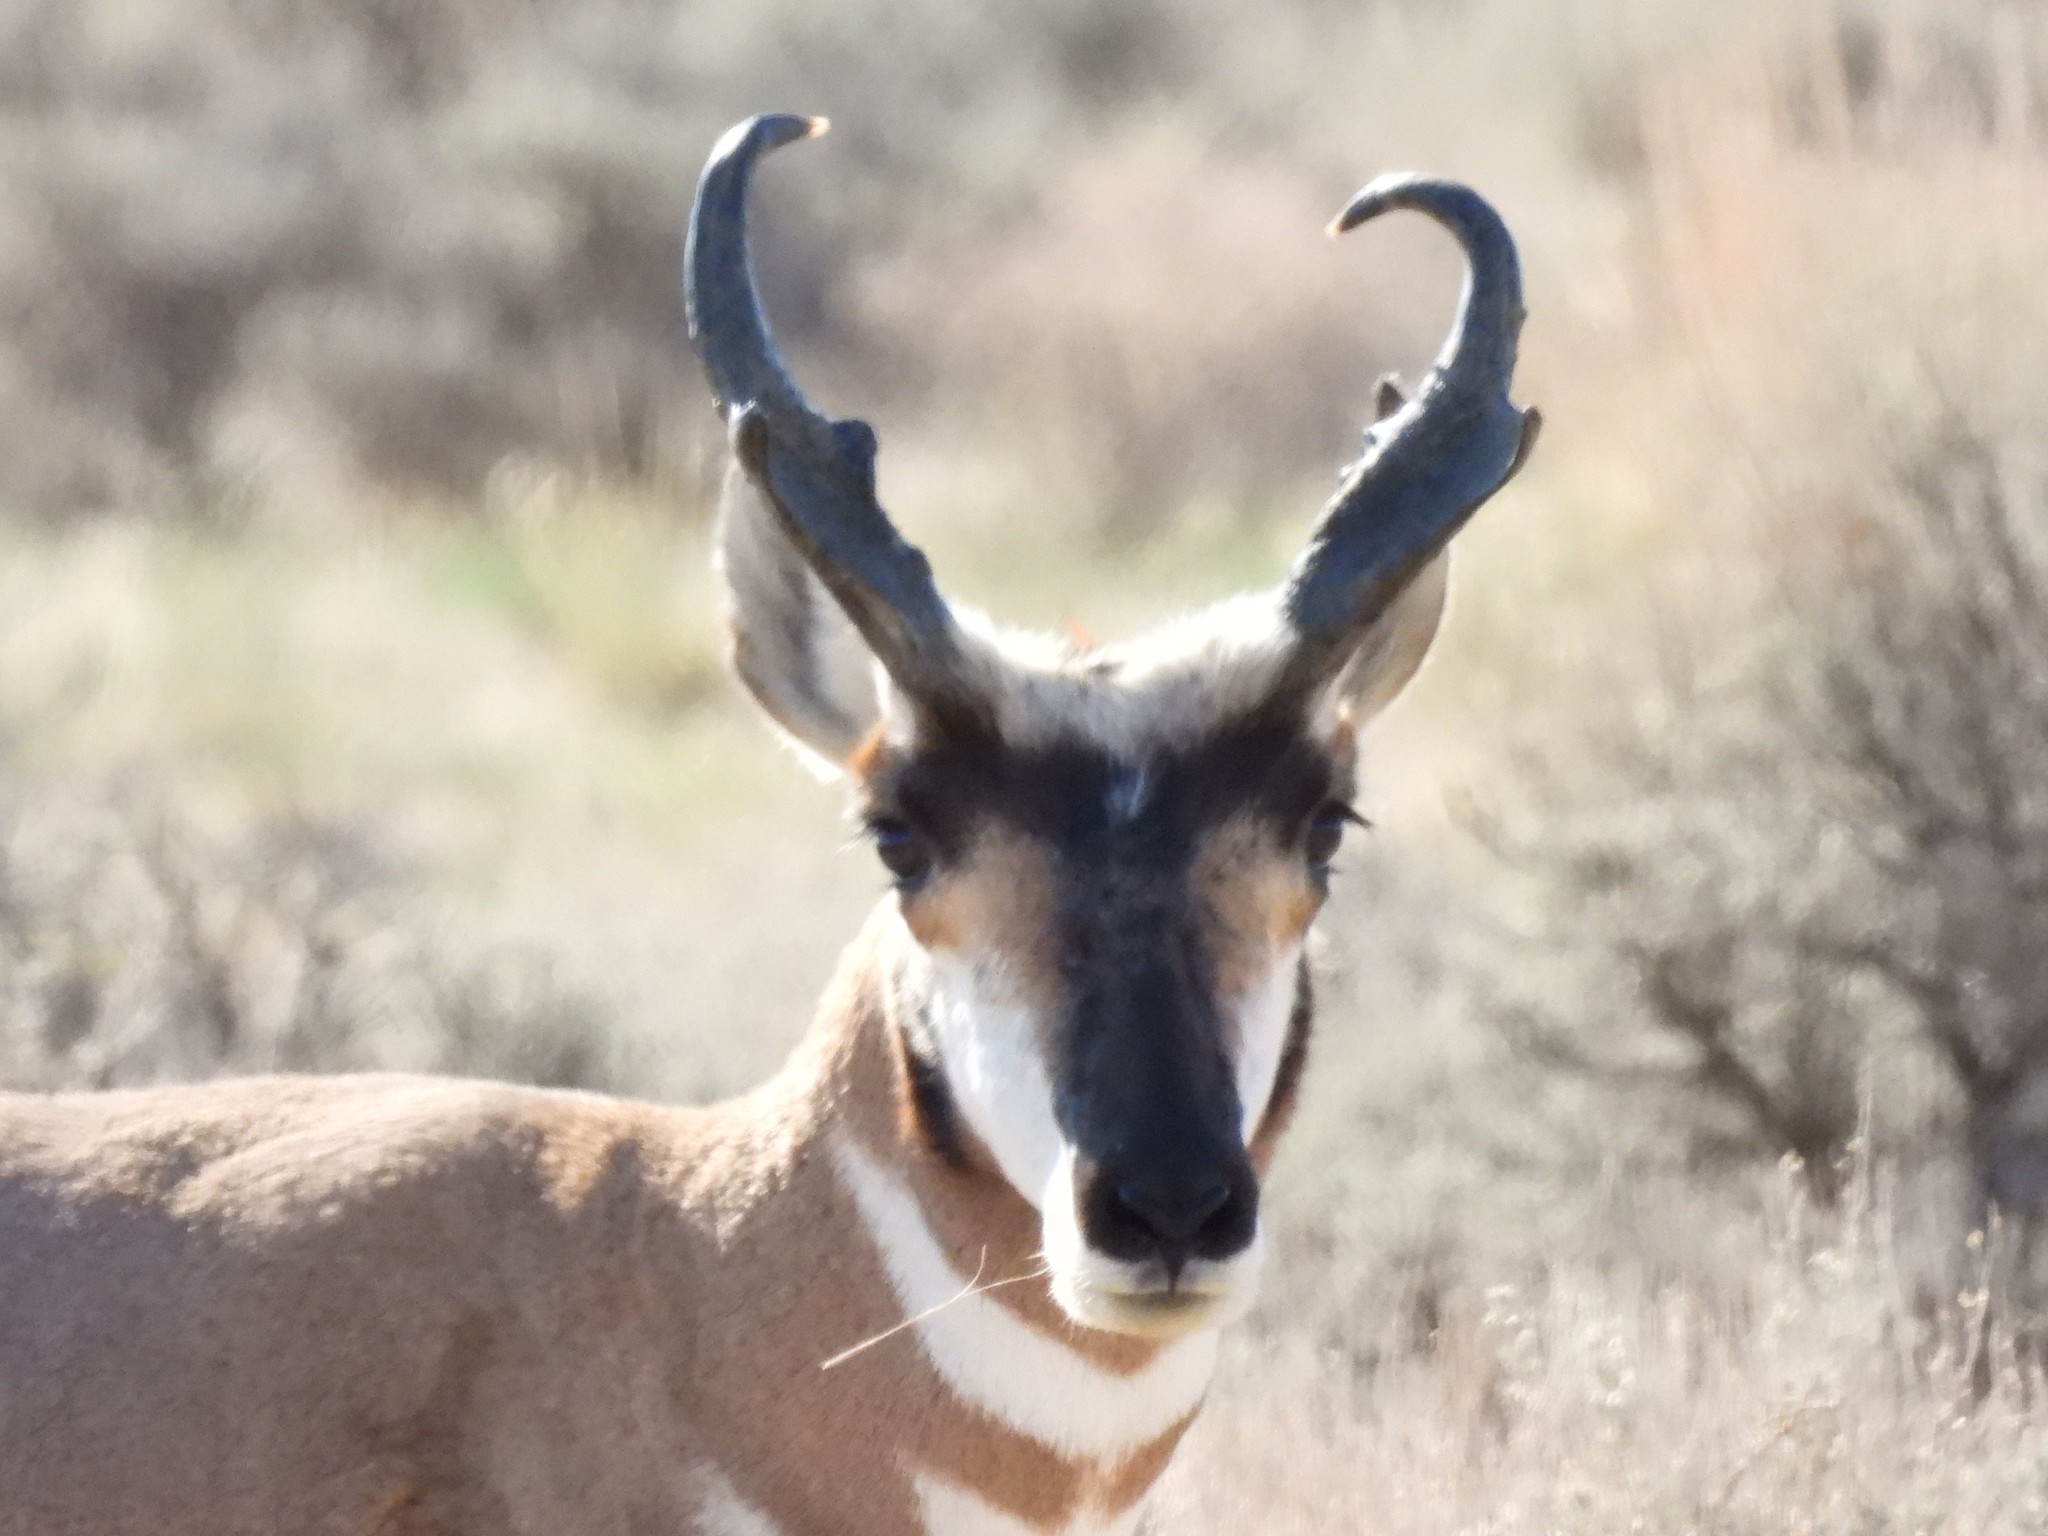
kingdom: Animalia
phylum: Chordata
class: Mammalia
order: Artiodactyla
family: Antilocapridae
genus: Antilocapra
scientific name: Antilocapra americana
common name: Pronghorn
